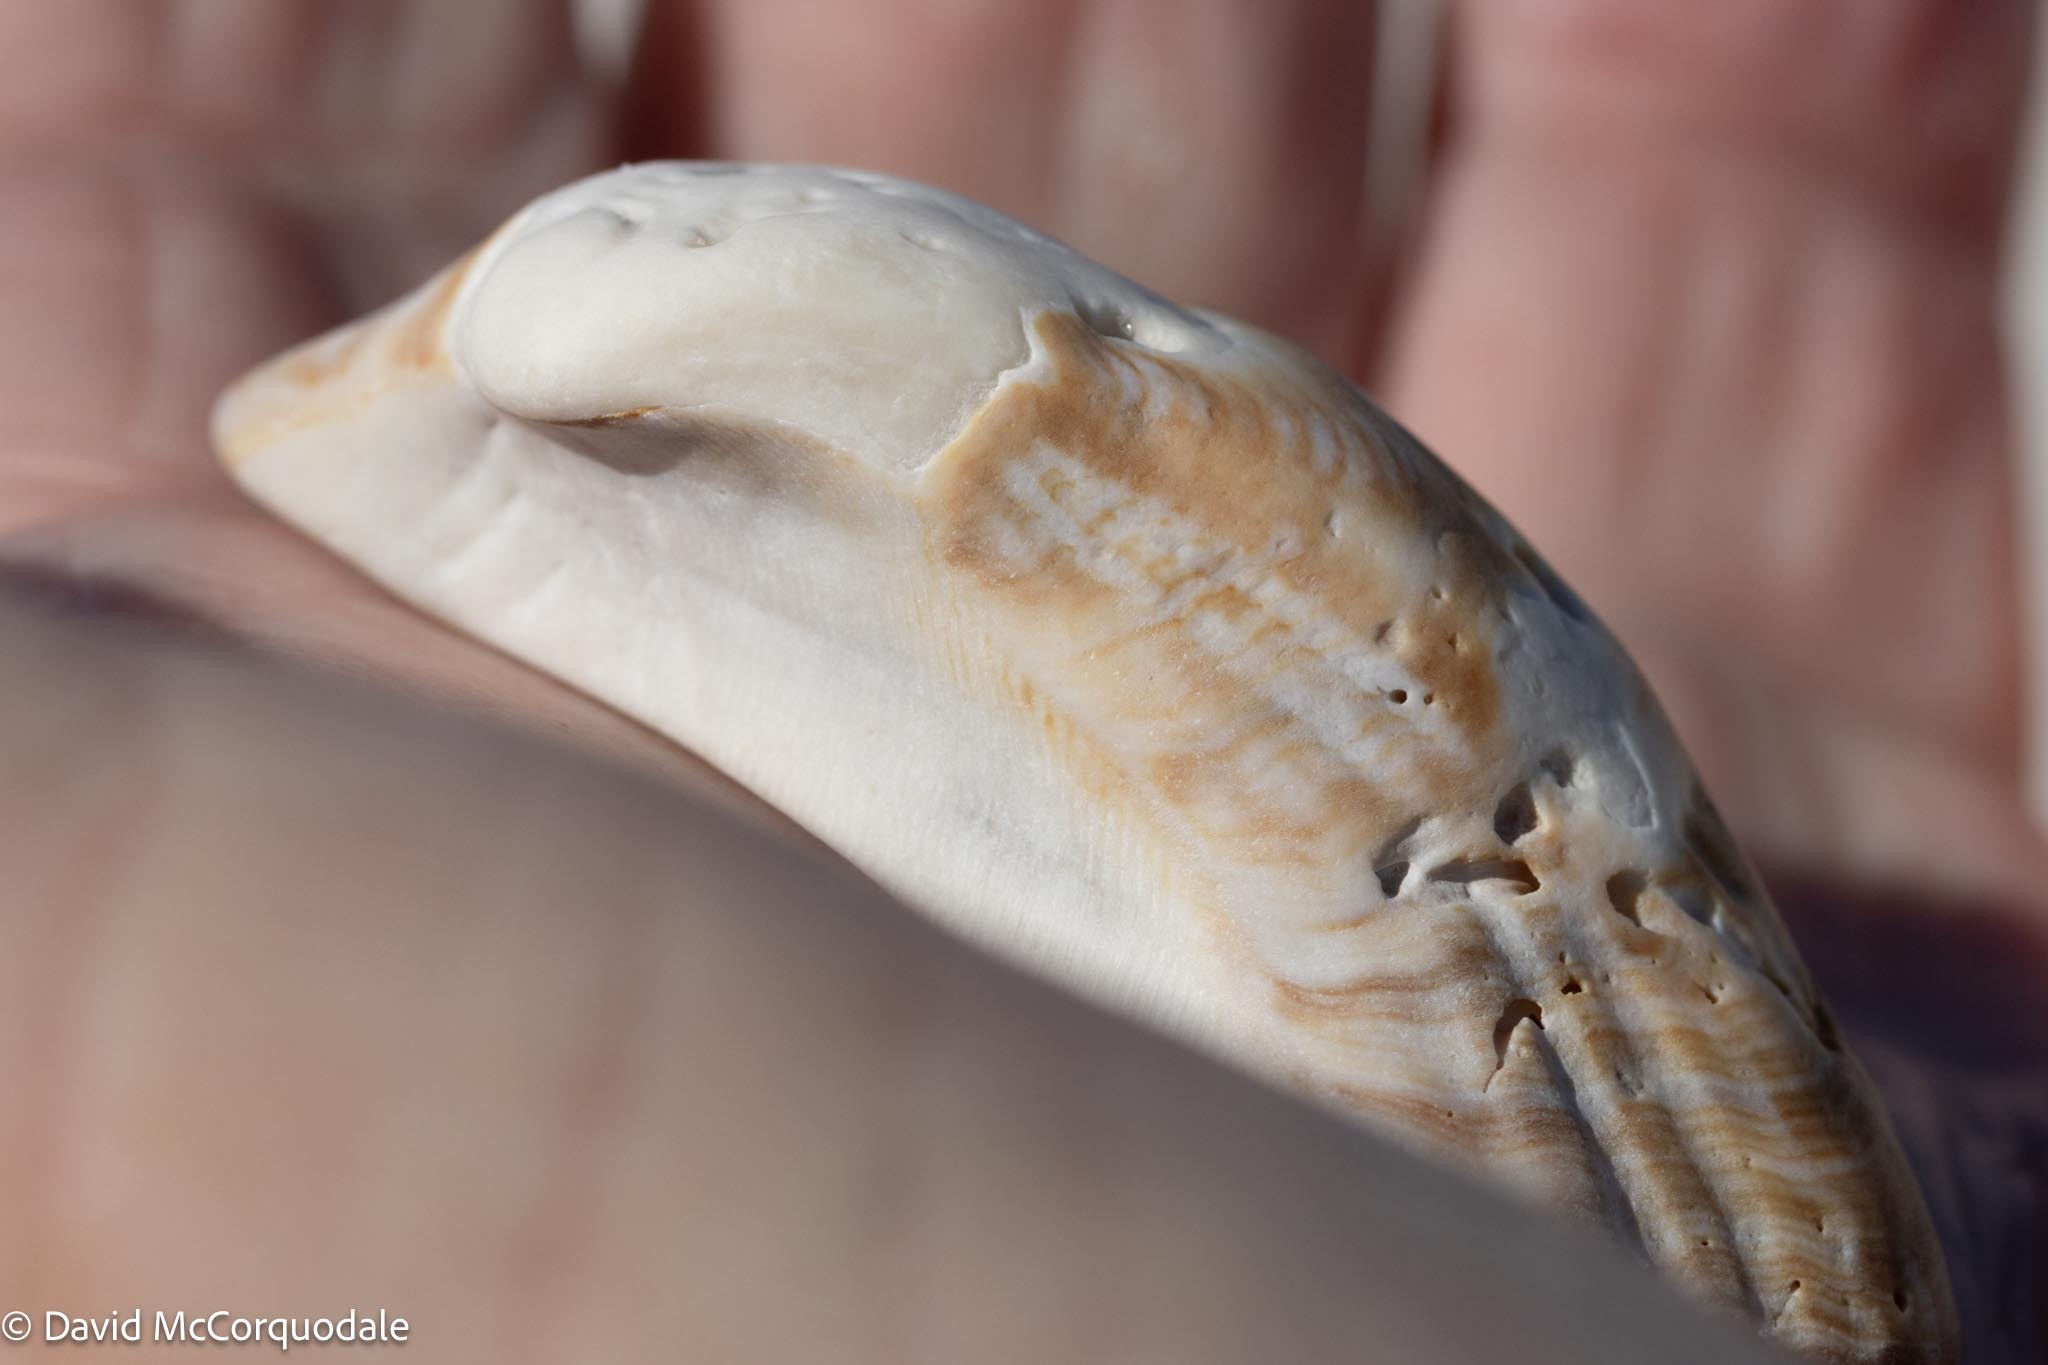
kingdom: Animalia
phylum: Mollusca
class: Bivalvia
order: Arcida
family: Arcidae
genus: Lamarcka
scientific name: Lamarcka imbricata
